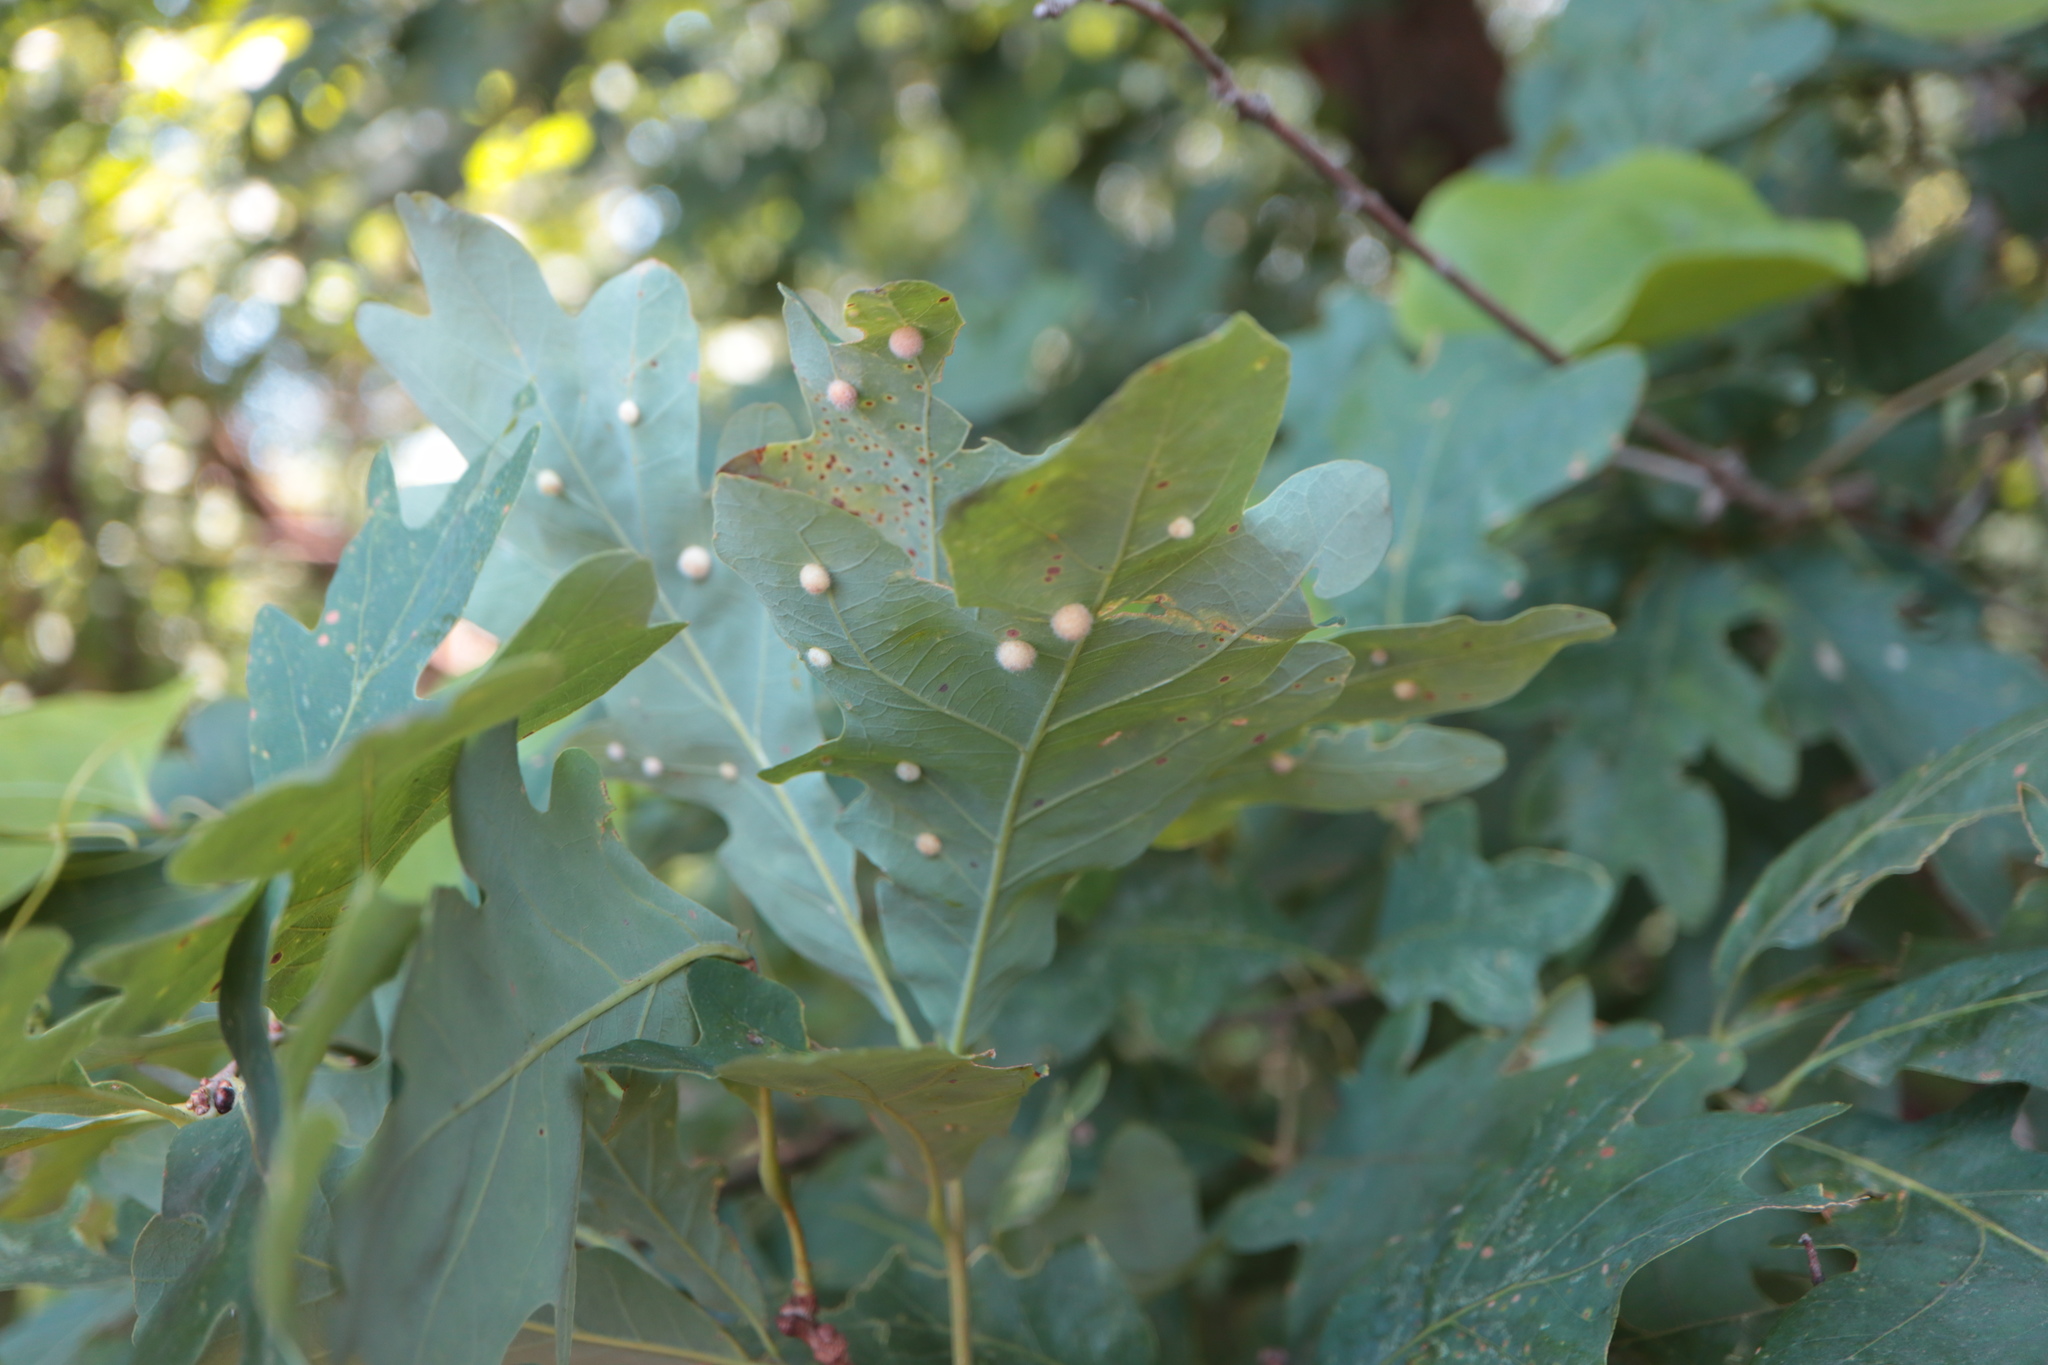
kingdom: Animalia
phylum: Arthropoda
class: Insecta
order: Hymenoptera
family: Cynipidae
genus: Philonix
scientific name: Philonix fulvicollis
